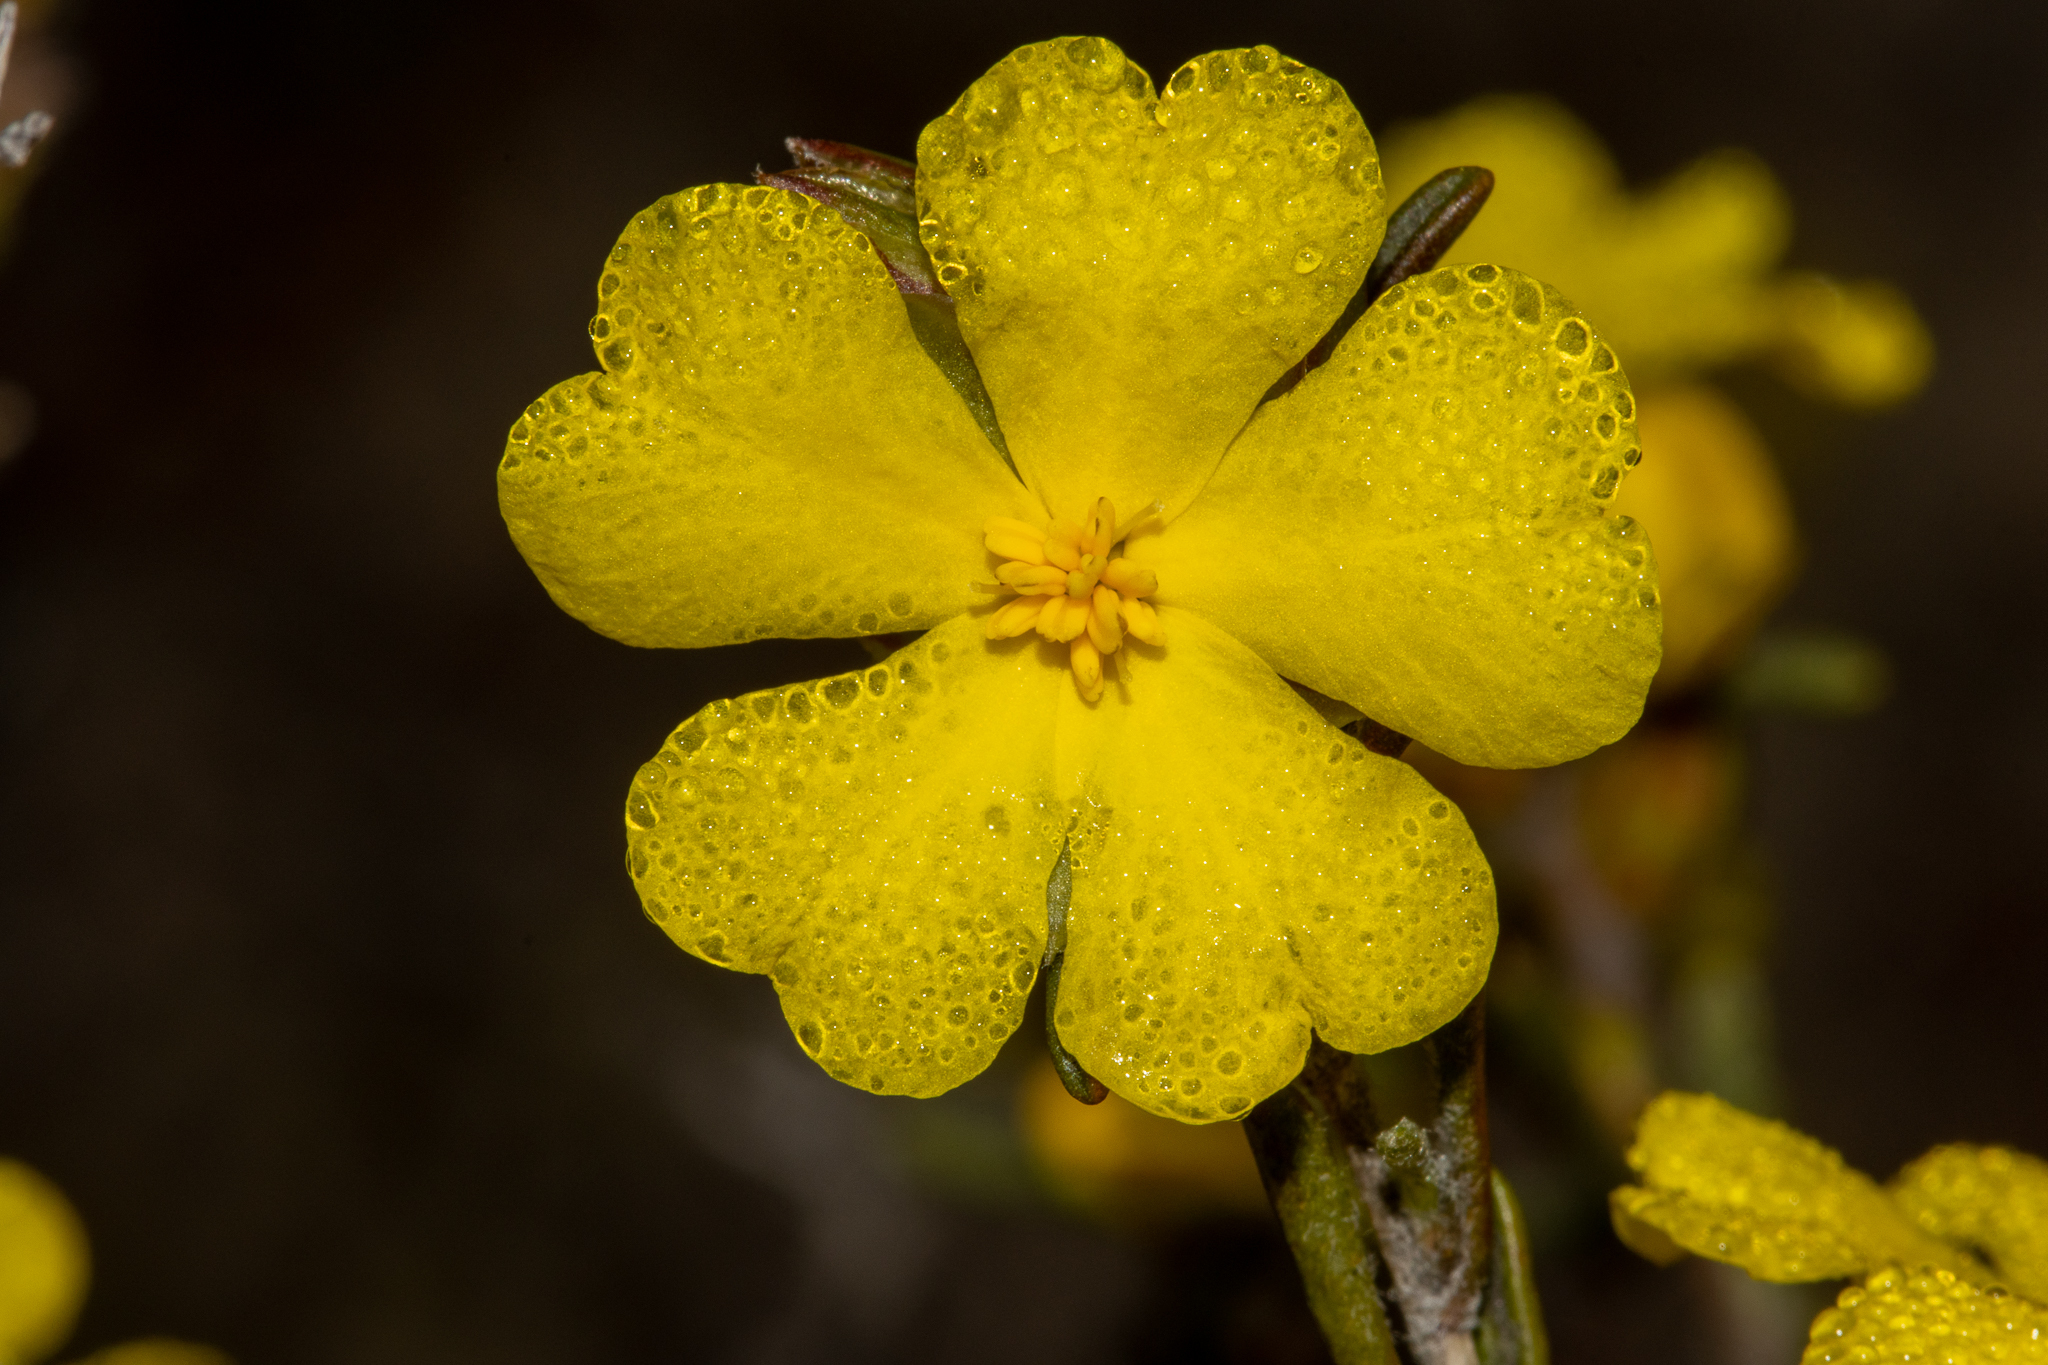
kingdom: Plantae
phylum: Tracheophyta
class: Magnoliopsida
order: Dilleniales
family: Dilleniaceae
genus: Hibbertia
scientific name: Hibbertia virgata
